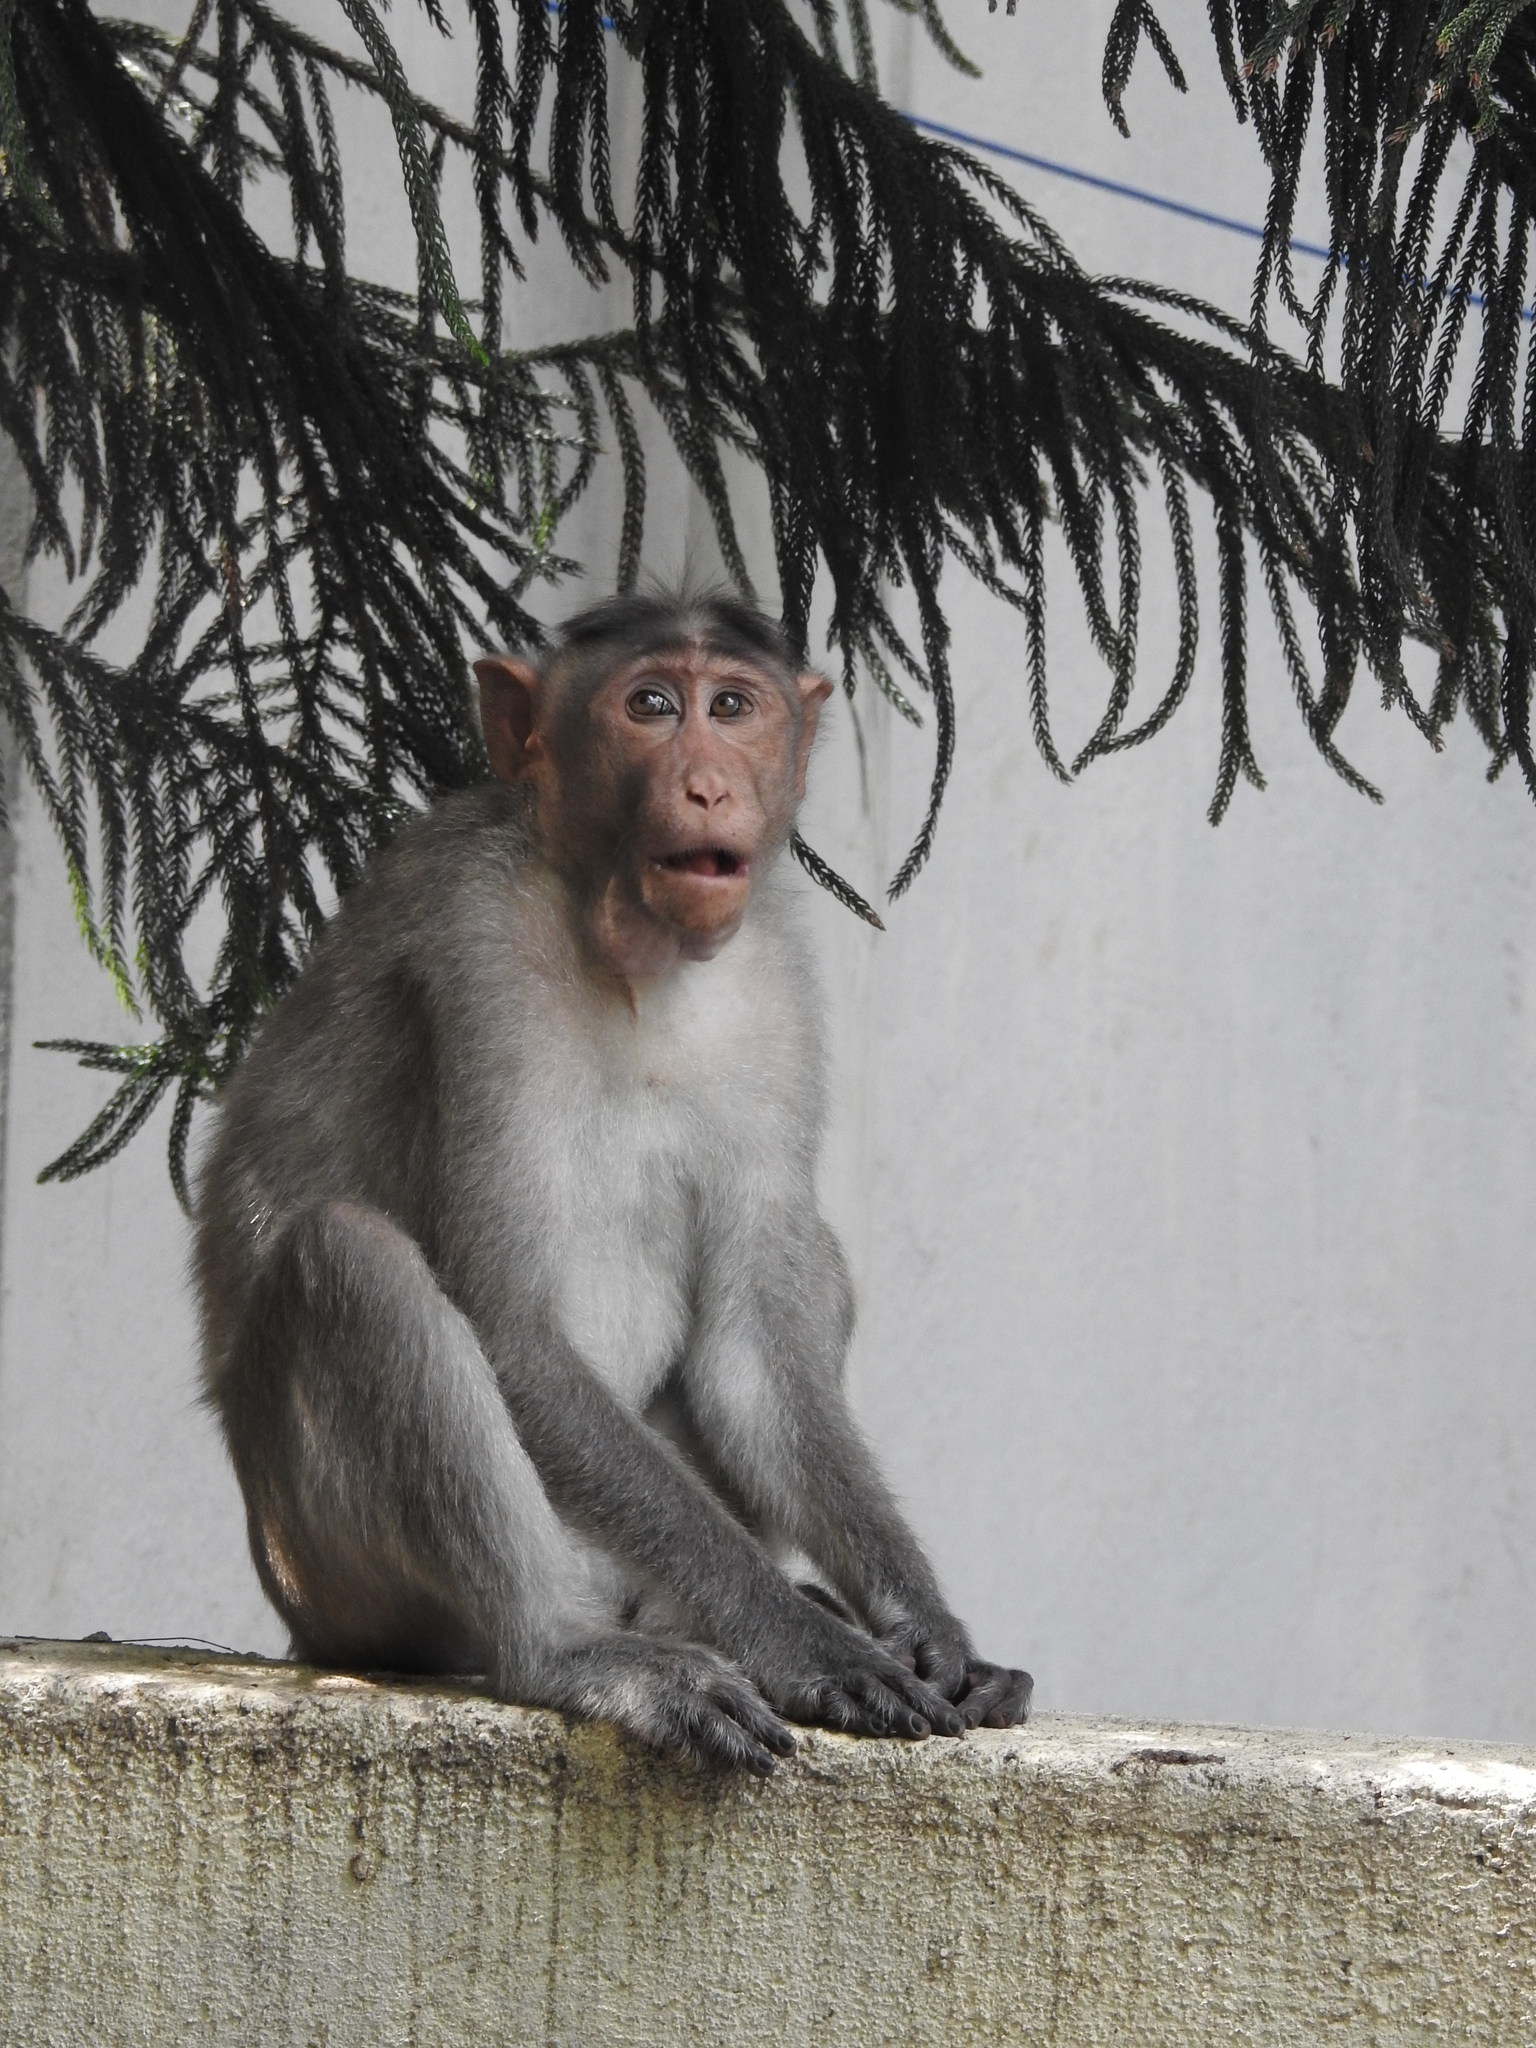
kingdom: Animalia
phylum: Chordata
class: Mammalia
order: Primates
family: Cercopithecidae
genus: Macaca
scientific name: Macaca radiata
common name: Bonnet macaque
